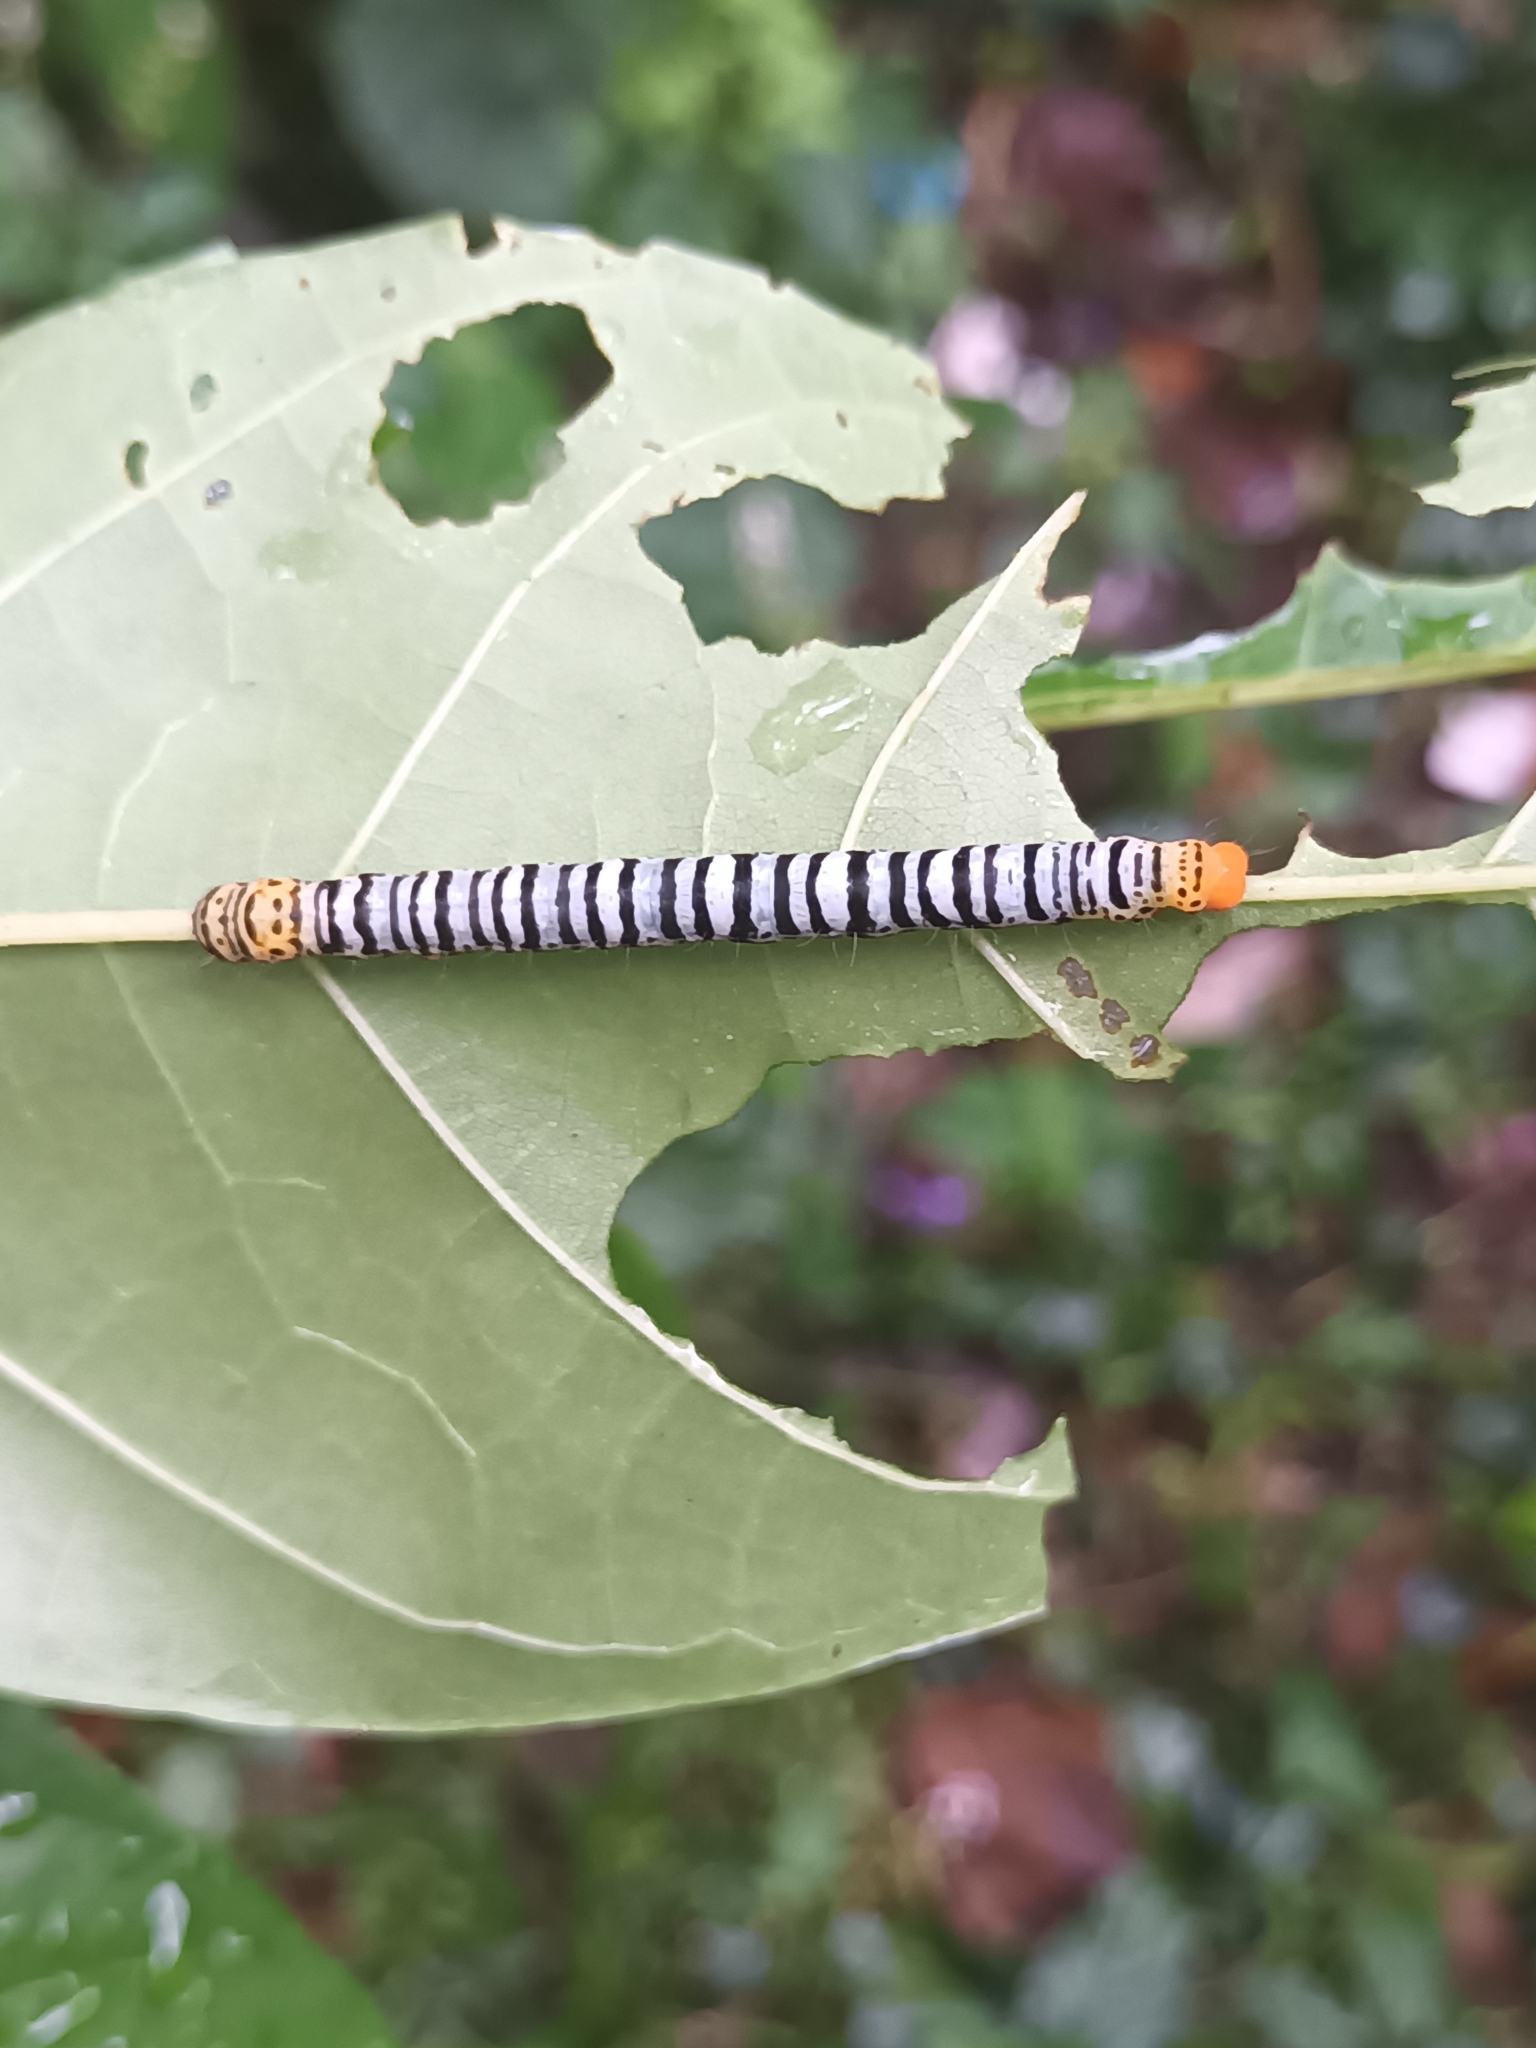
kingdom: Animalia
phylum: Arthropoda
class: Insecta
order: Lepidoptera
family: Erebidae
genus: Falana
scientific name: Falana sordida
